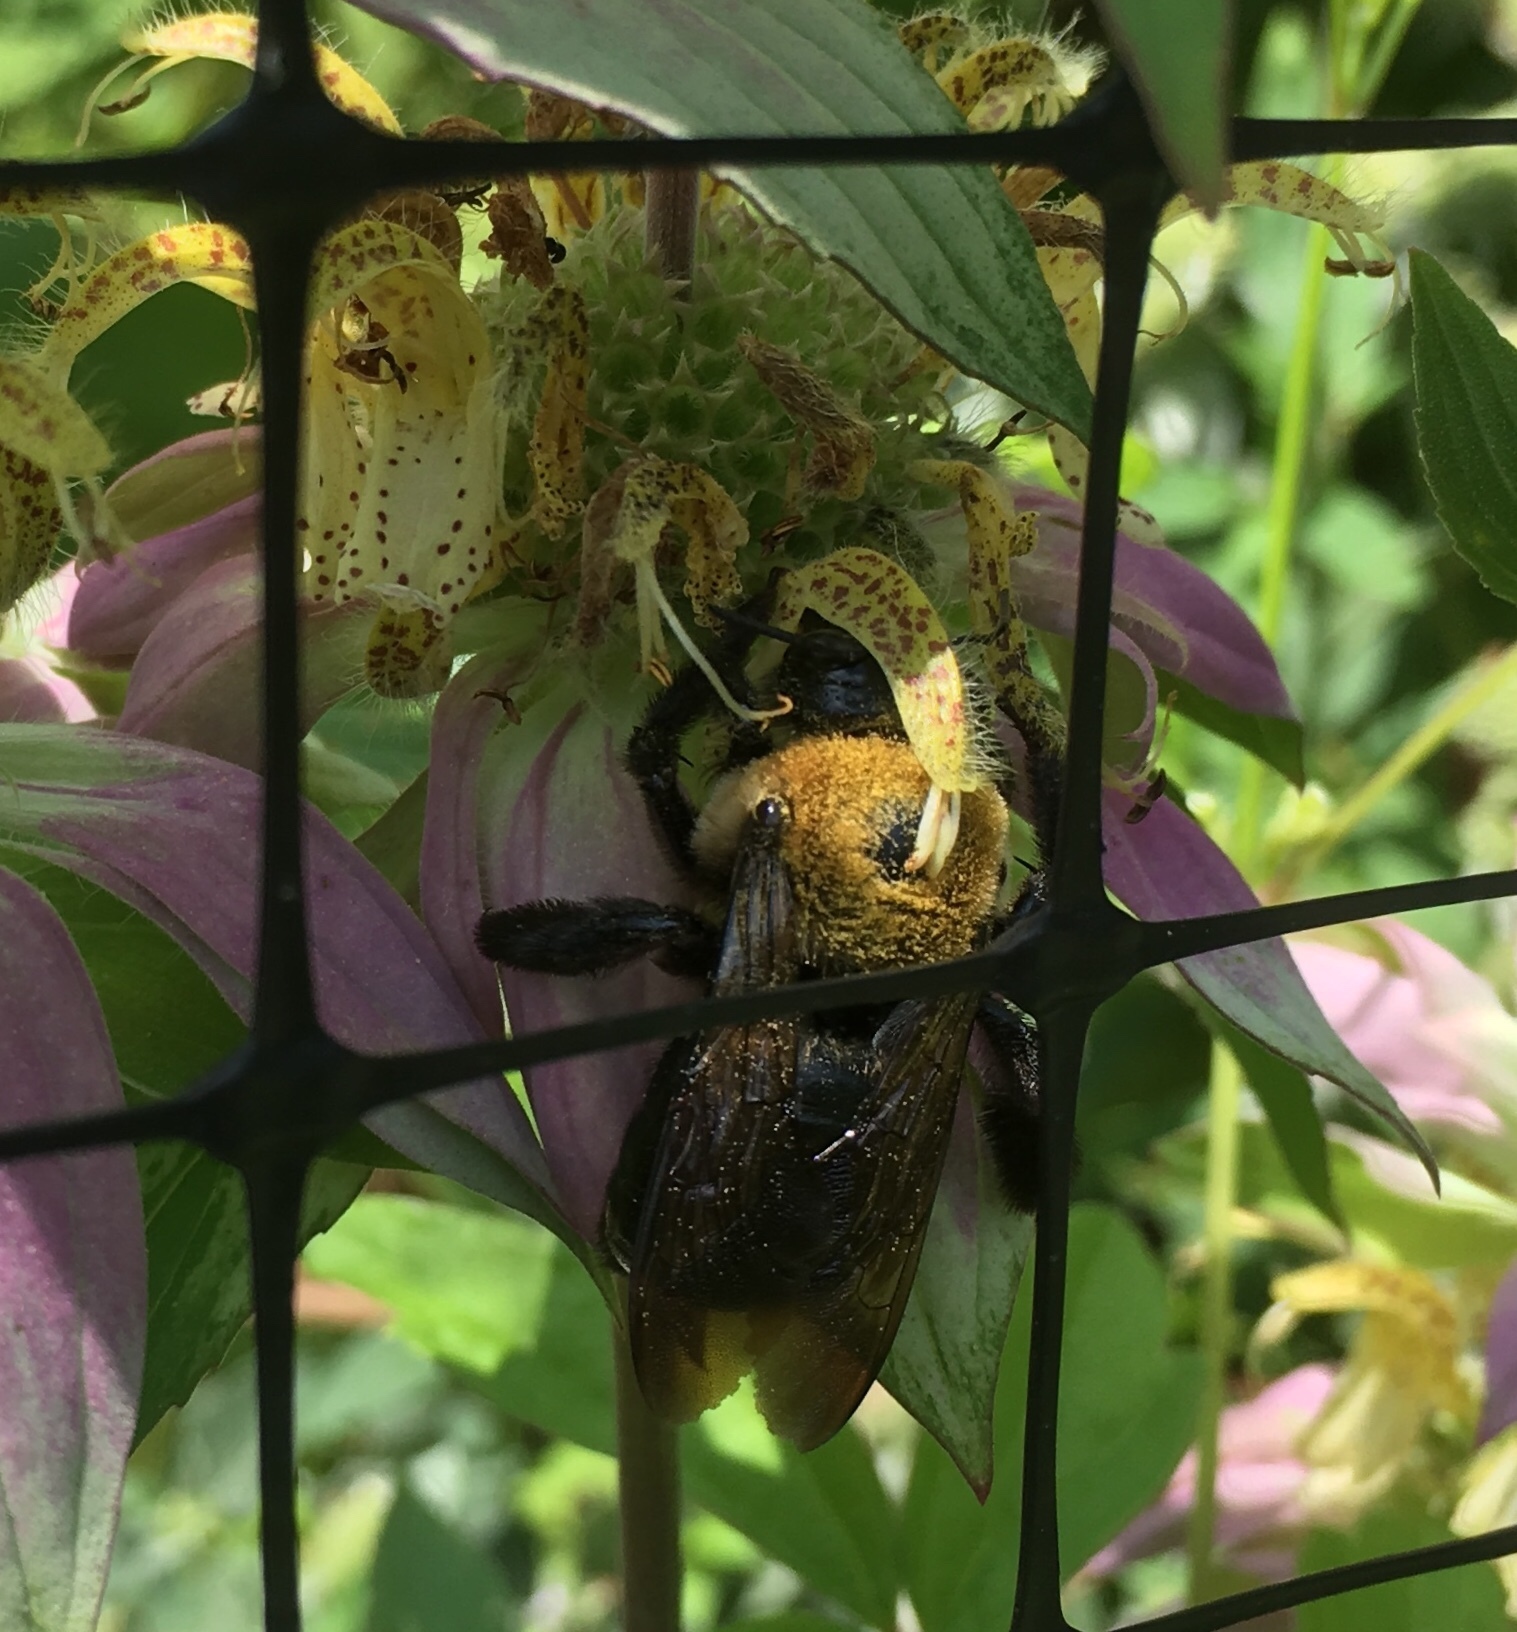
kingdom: Animalia
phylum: Arthropoda
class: Insecta
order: Hymenoptera
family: Apidae
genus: Xylocopa
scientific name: Xylocopa virginica
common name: Carpenter bee
